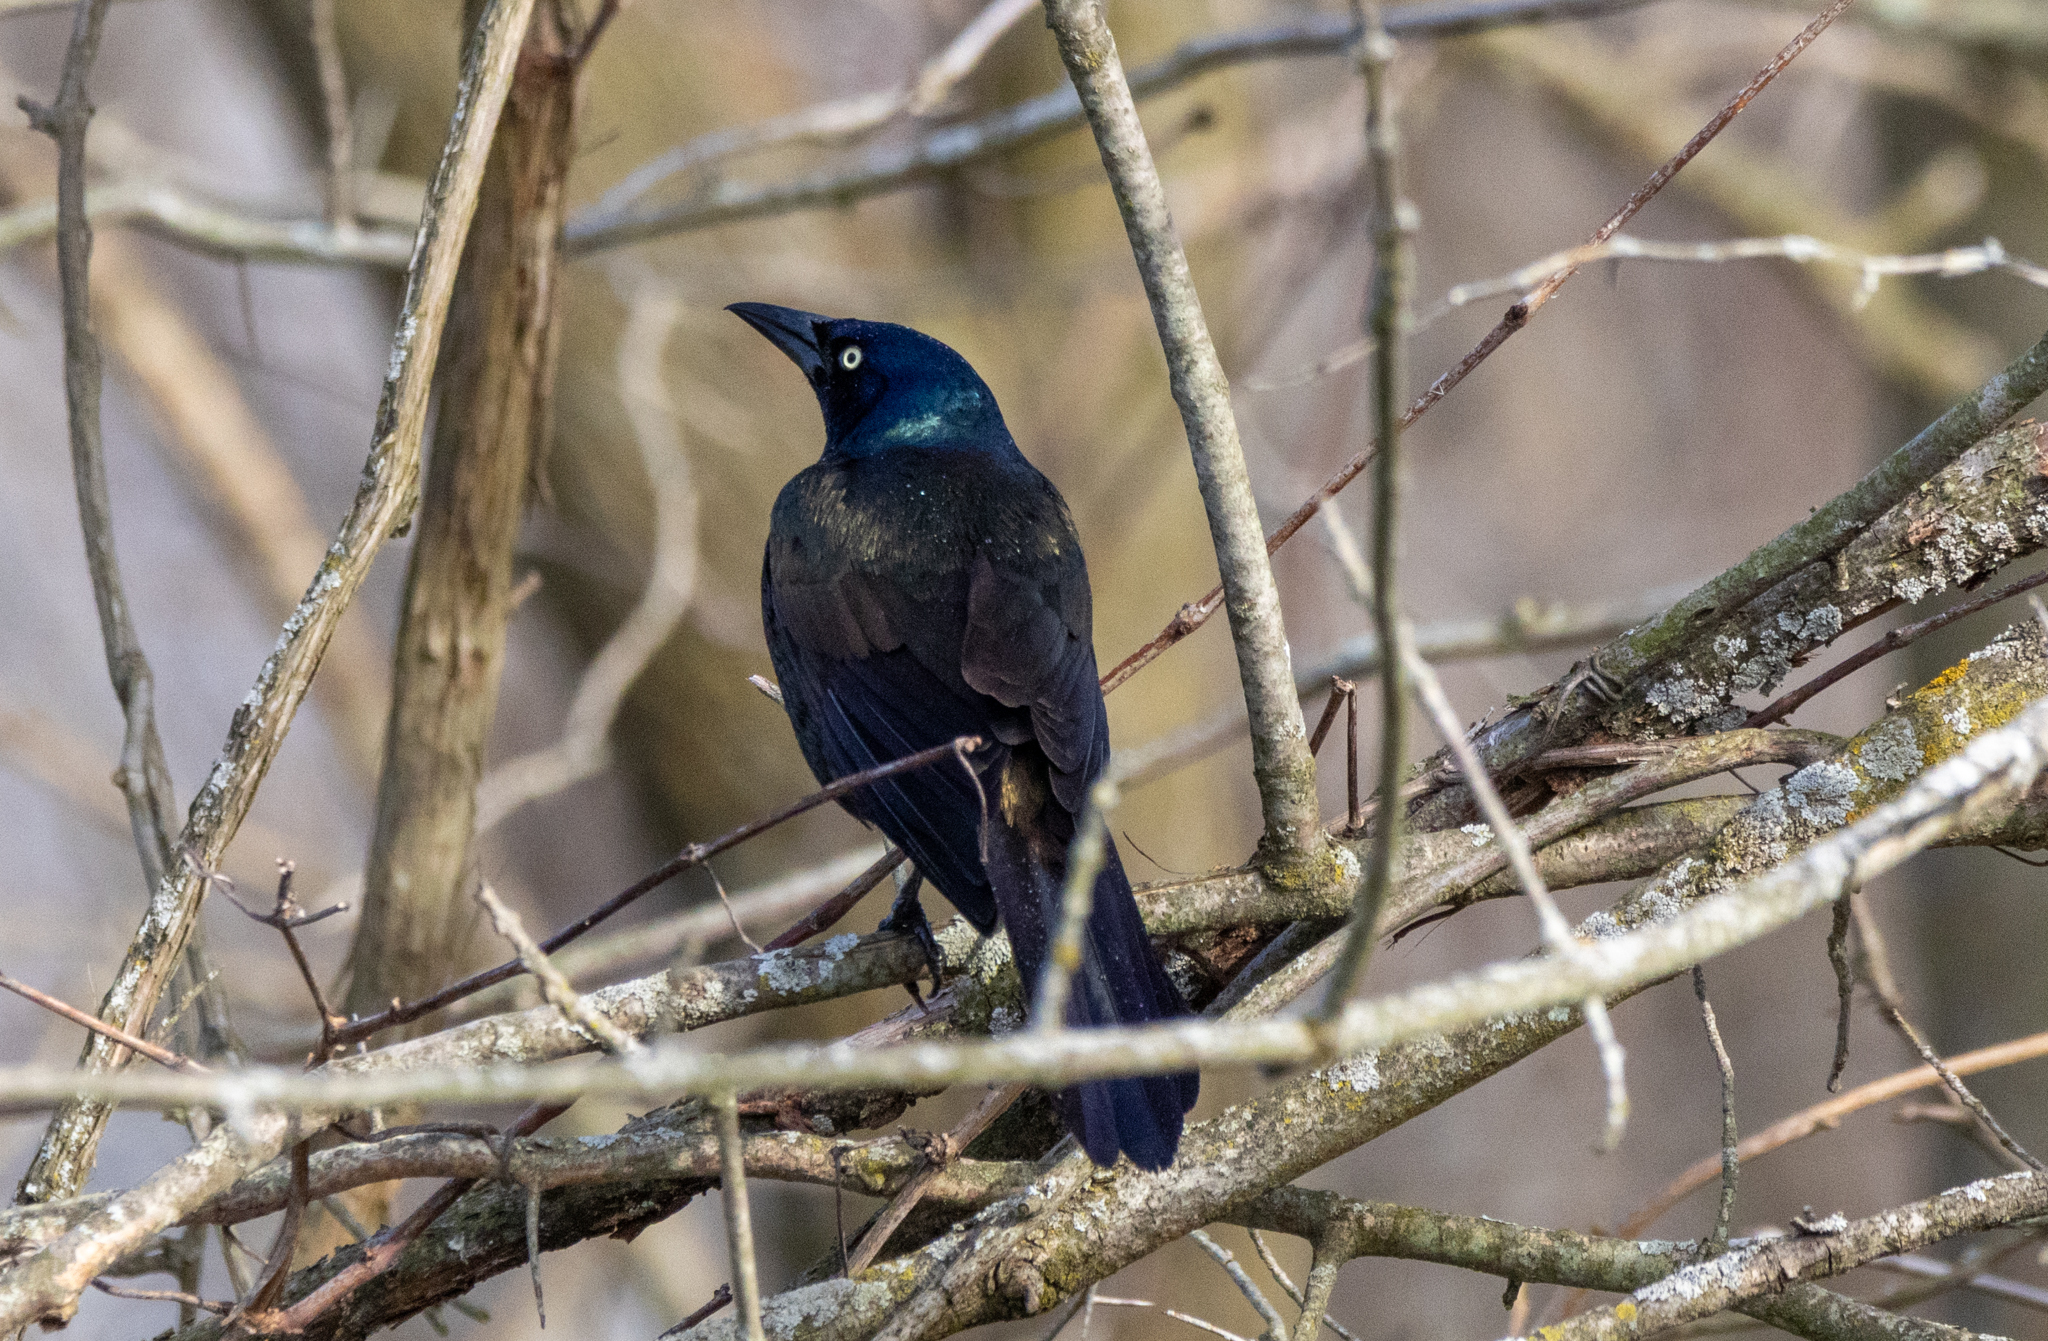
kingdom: Animalia
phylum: Chordata
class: Aves
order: Passeriformes
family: Icteridae
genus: Quiscalus
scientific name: Quiscalus quiscula
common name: Common grackle
